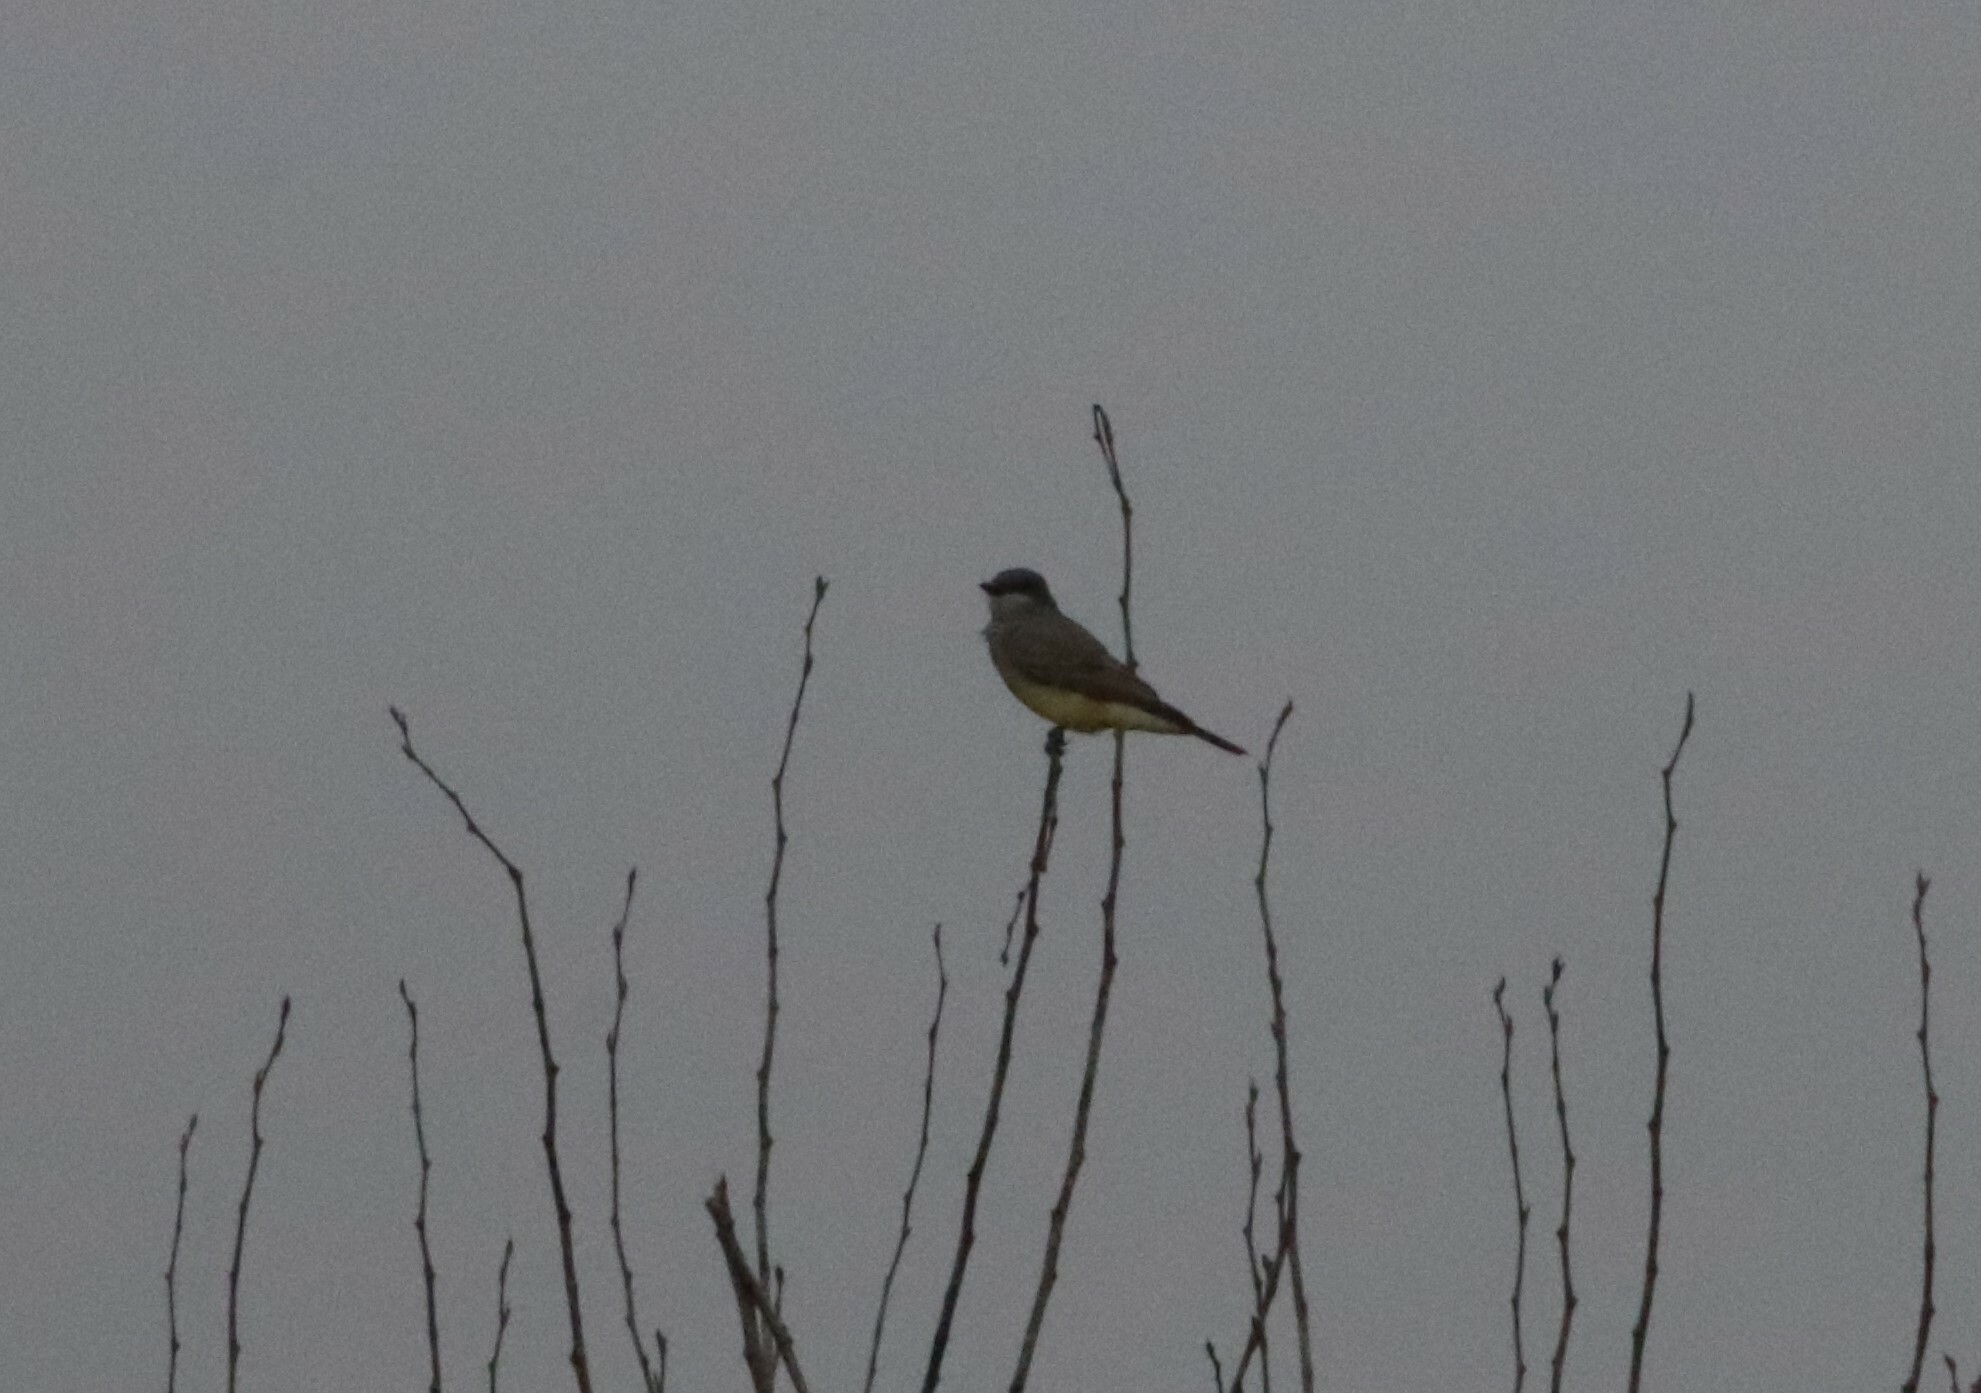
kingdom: Animalia
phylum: Chordata
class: Aves
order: Passeriformes
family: Tyrannidae
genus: Tyrannus
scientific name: Tyrannus vociferans
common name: Cassin's kingbird
